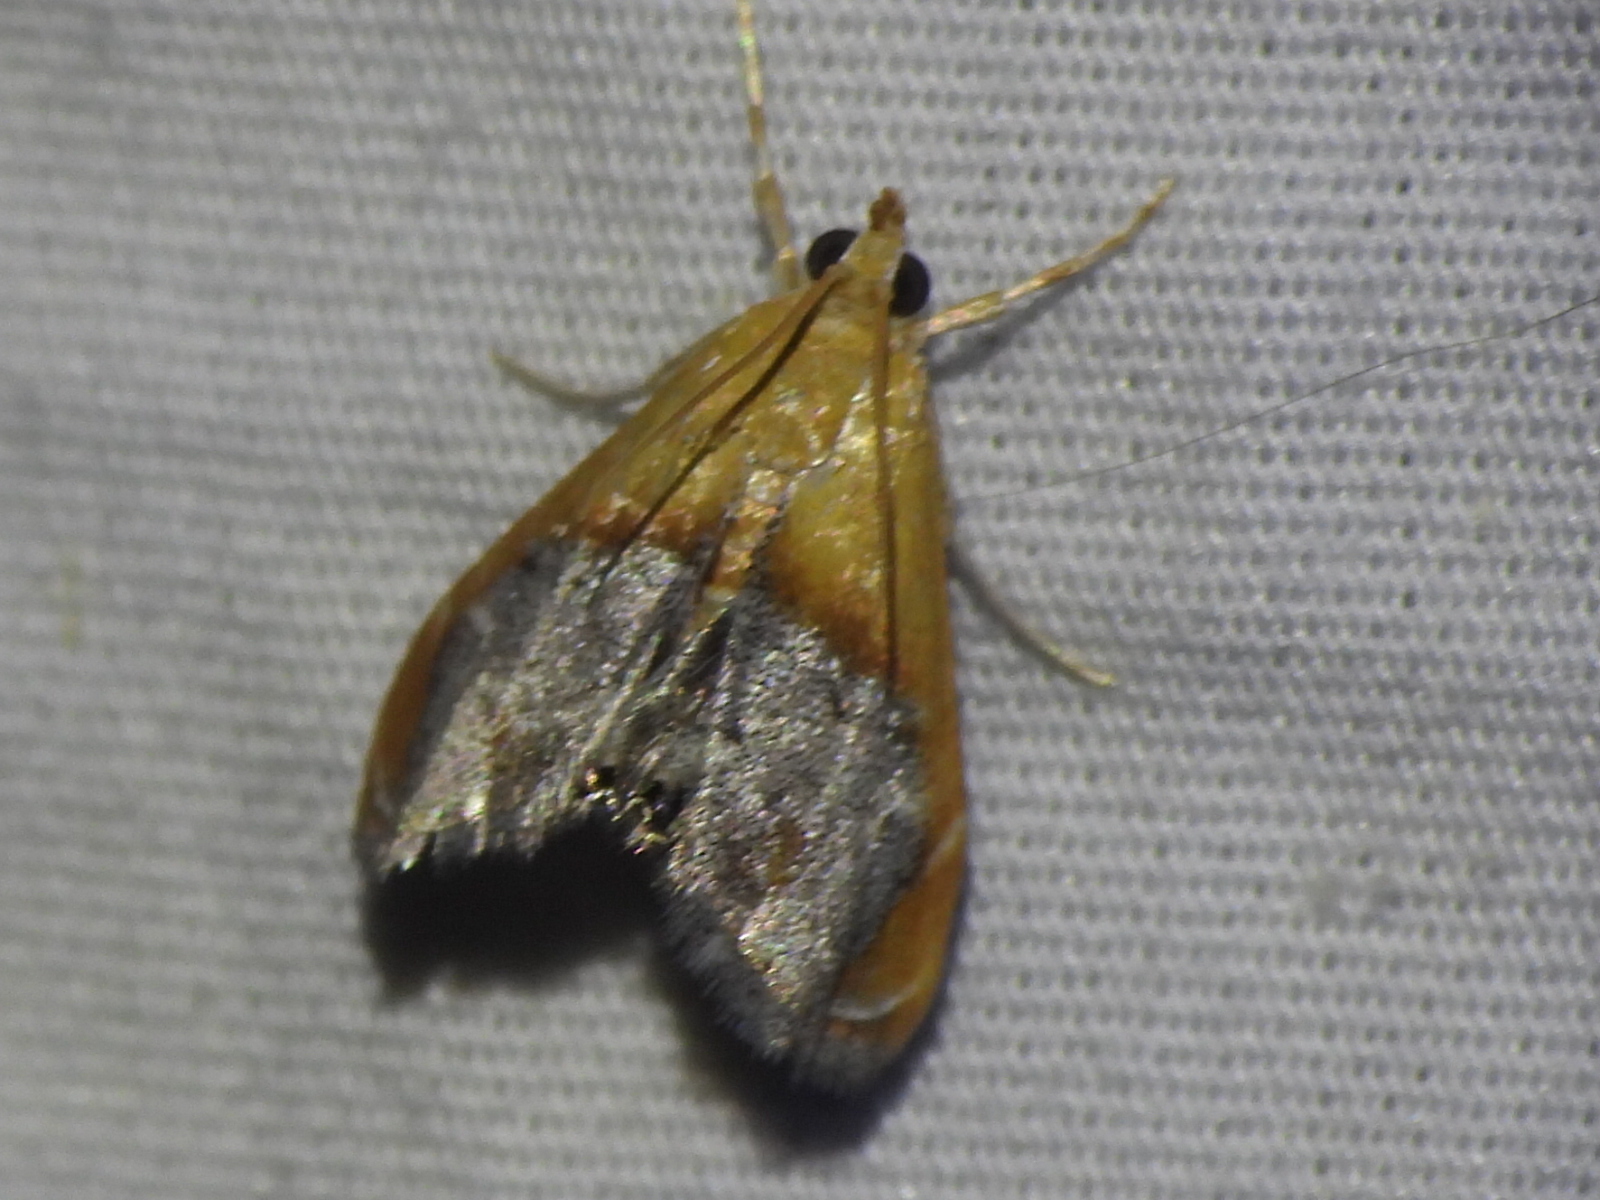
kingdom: Animalia
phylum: Arthropoda
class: Insecta
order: Lepidoptera
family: Crambidae
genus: Chalcoela
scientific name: Chalcoela iphitalis
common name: Sooty-winged chalcoela moth
